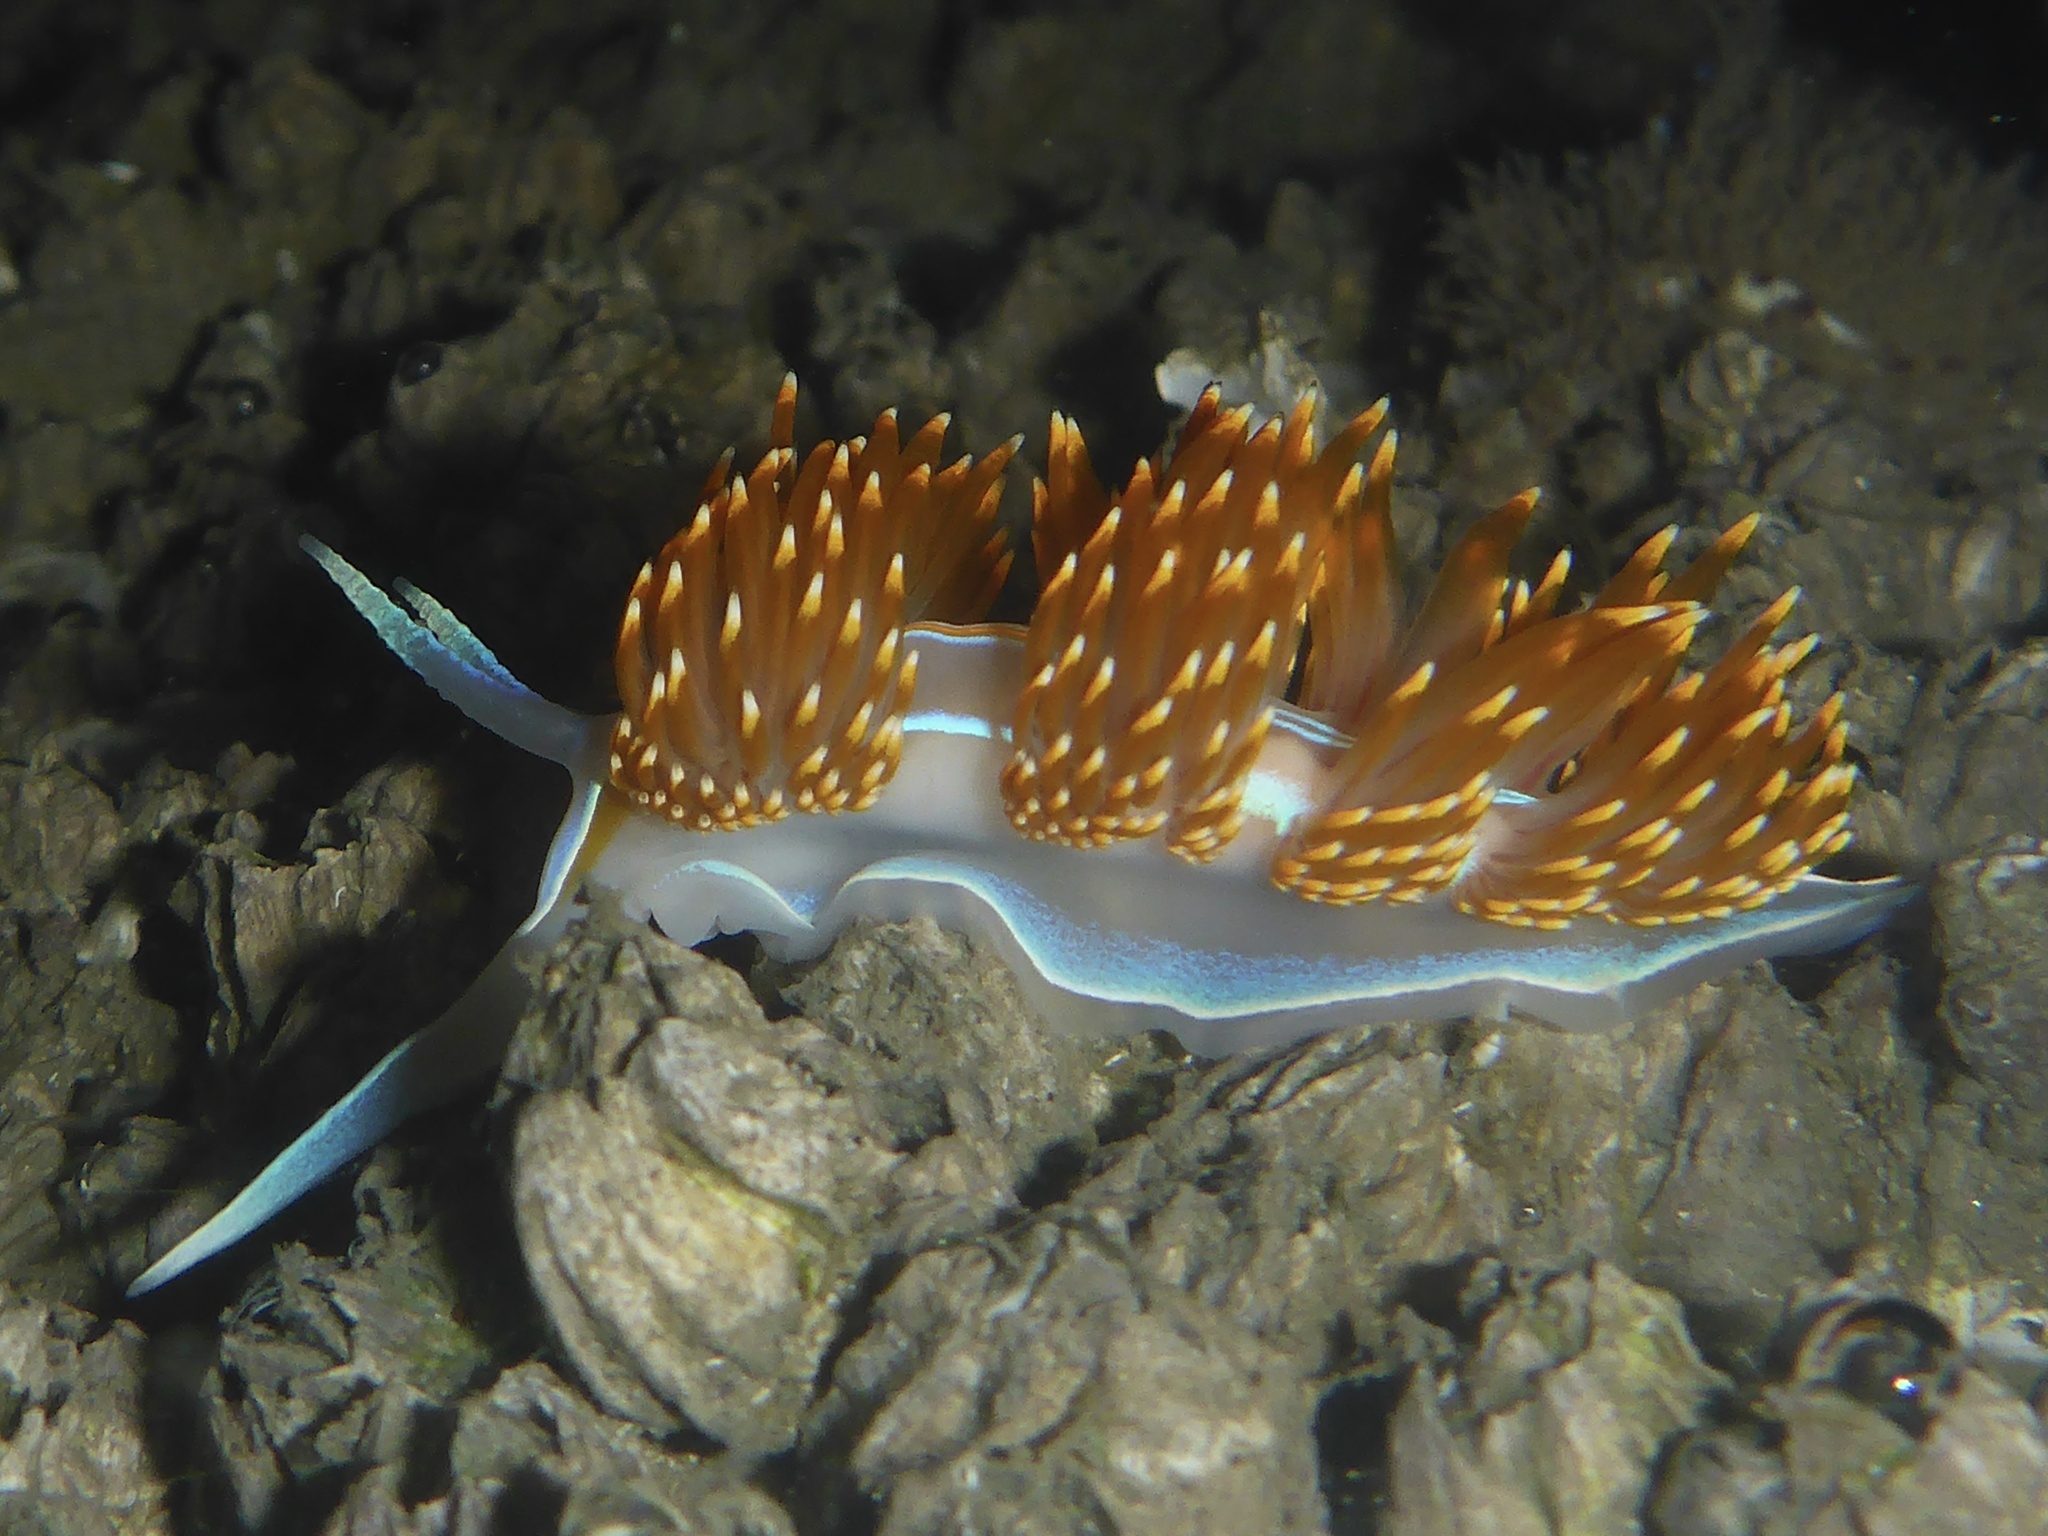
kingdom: Animalia
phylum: Mollusca
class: Gastropoda
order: Nudibranchia
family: Myrrhinidae
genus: Hermissenda
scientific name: Hermissenda opalescens
